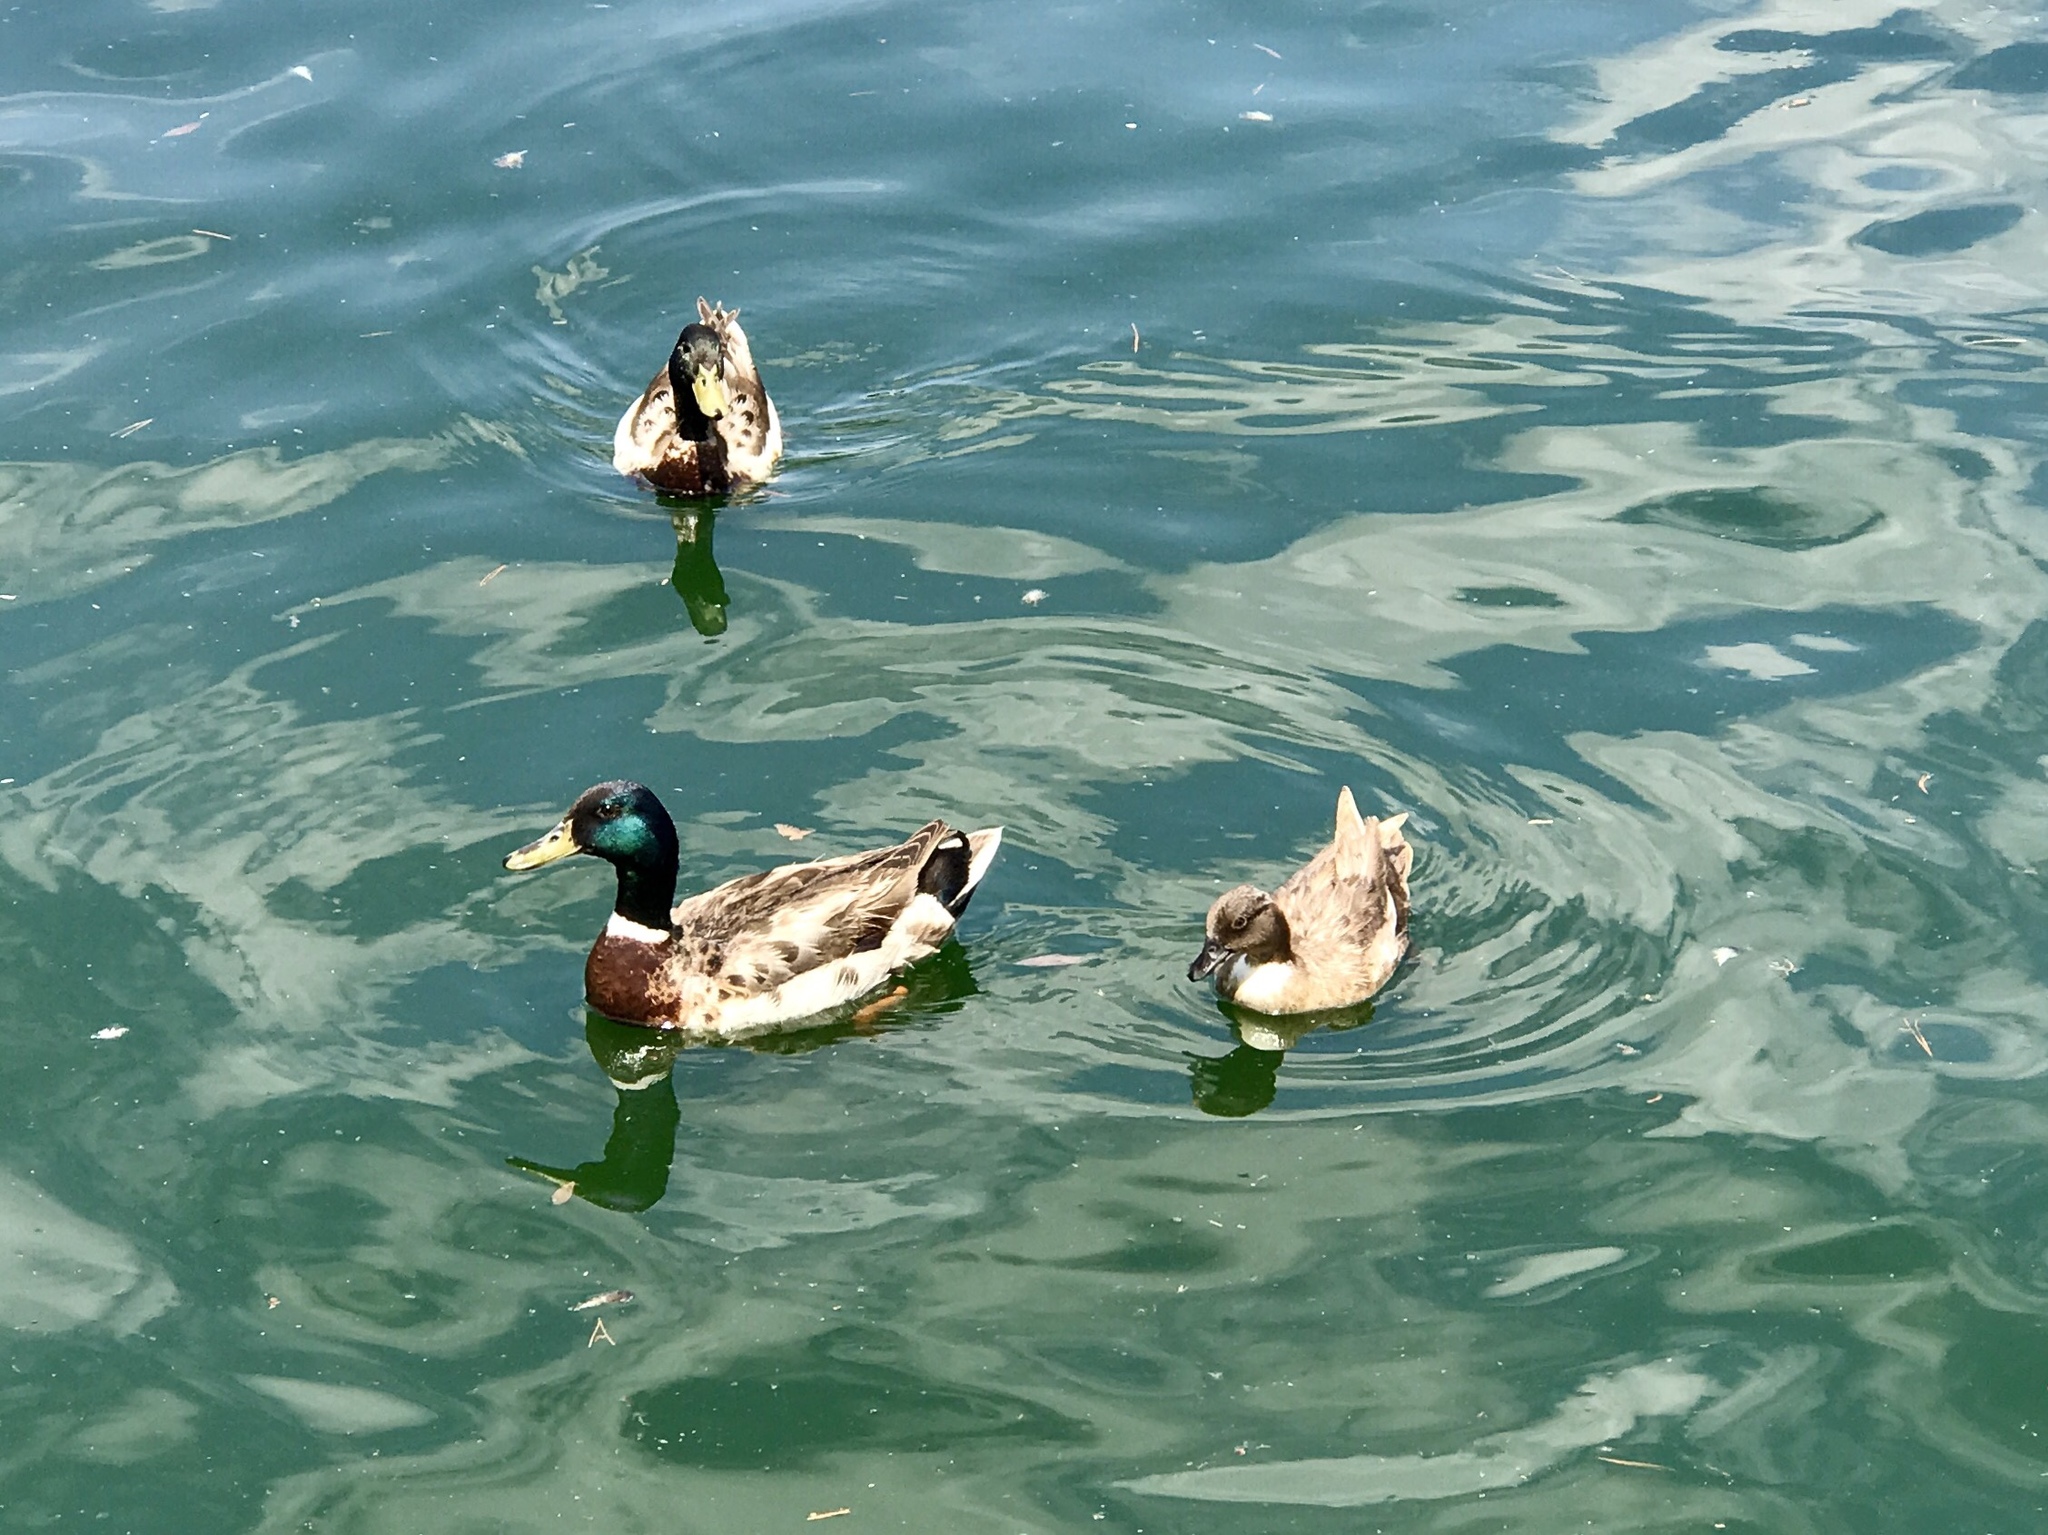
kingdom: Animalia
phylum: Chordata
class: Aves
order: Anseriformes
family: Anatidae
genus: Anas
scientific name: Anas platyrhynchos
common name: Mallard
